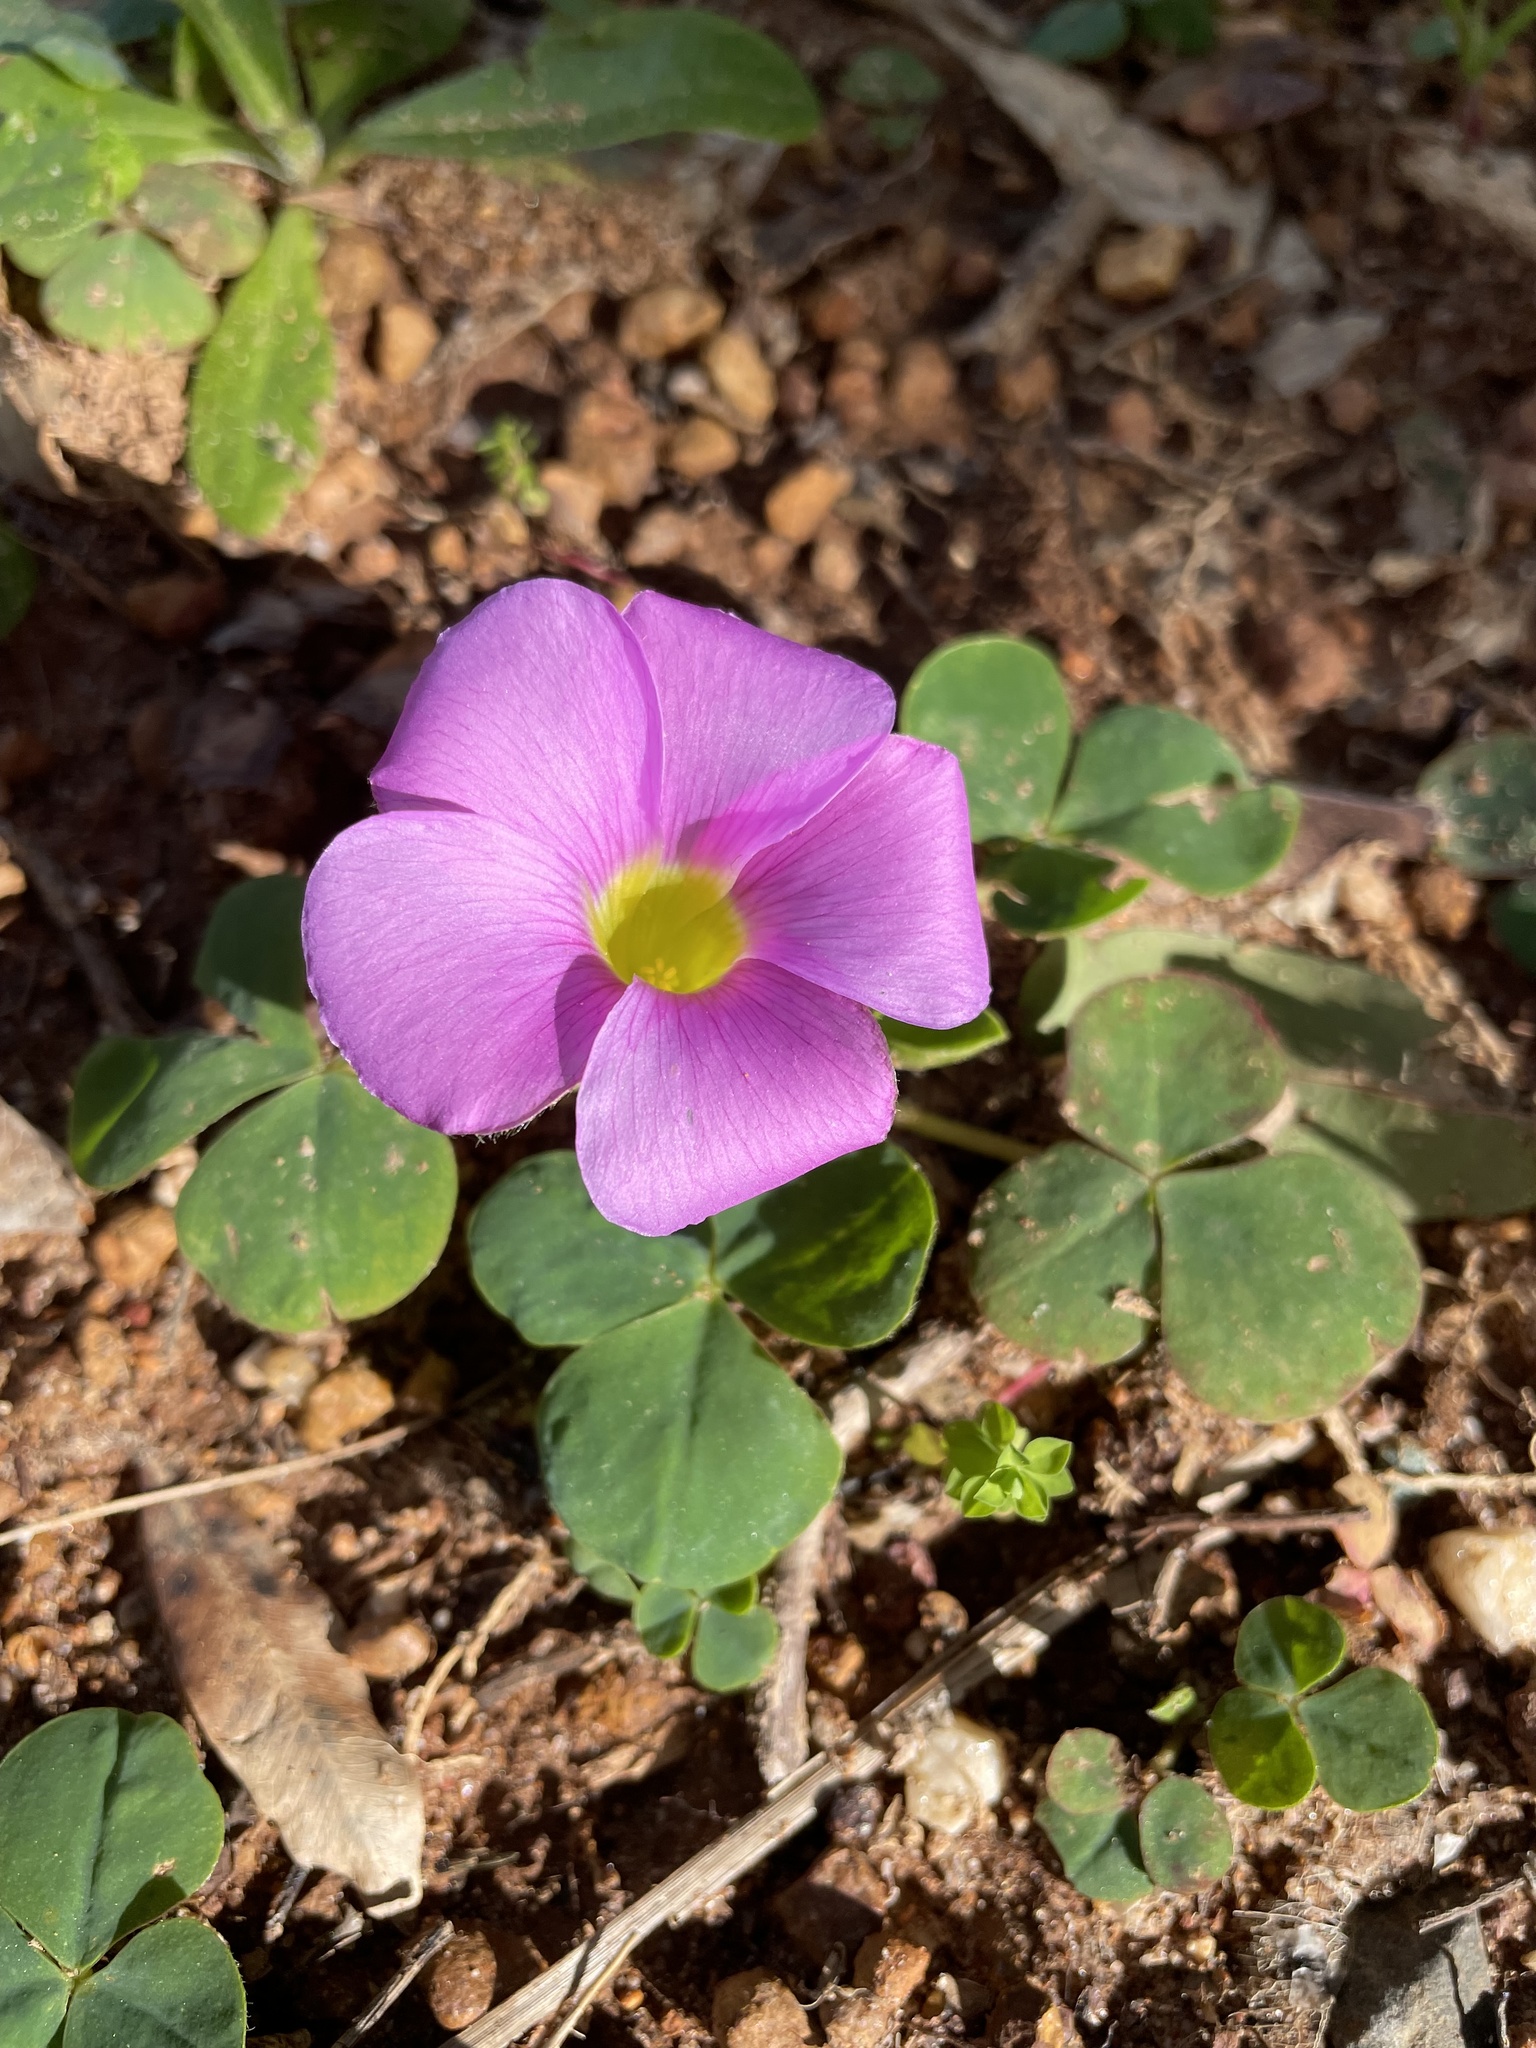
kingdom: Plantae
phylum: Tracheophyta
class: Magnoliopsida
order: Oxalidales
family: Oxalidaceae
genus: Oxalis
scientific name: Oxalis purpurea
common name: Purple woodsorrel
